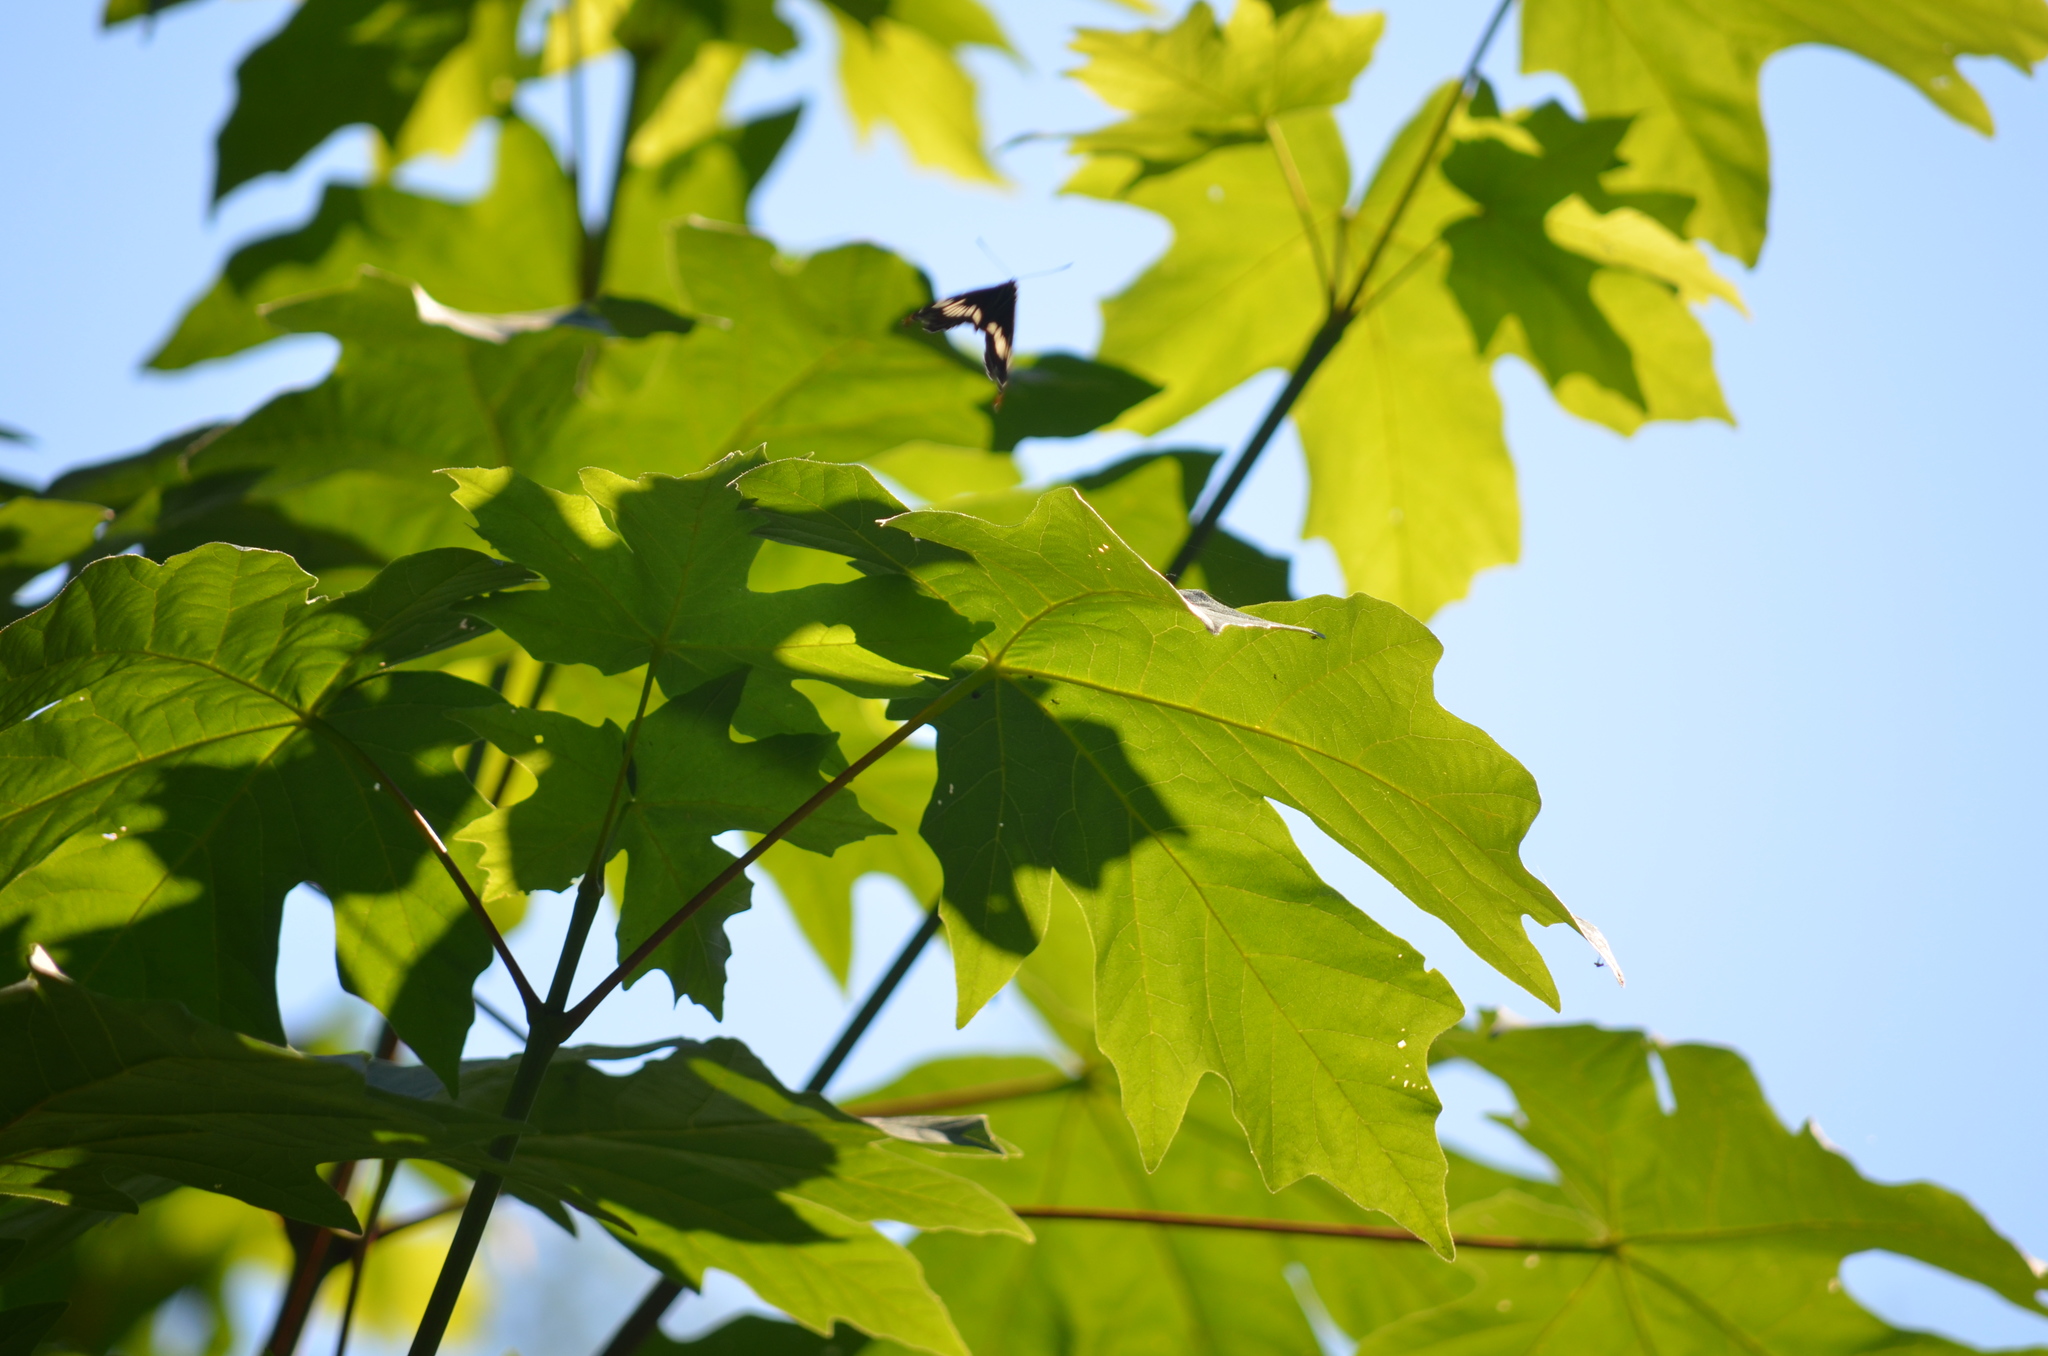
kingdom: Animalia
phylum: Arthropoda
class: Insecta
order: Lepidoptera
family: Nymphalidae
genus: Limenitis
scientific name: Limenitis lorquini
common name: Lorquin's admiral
